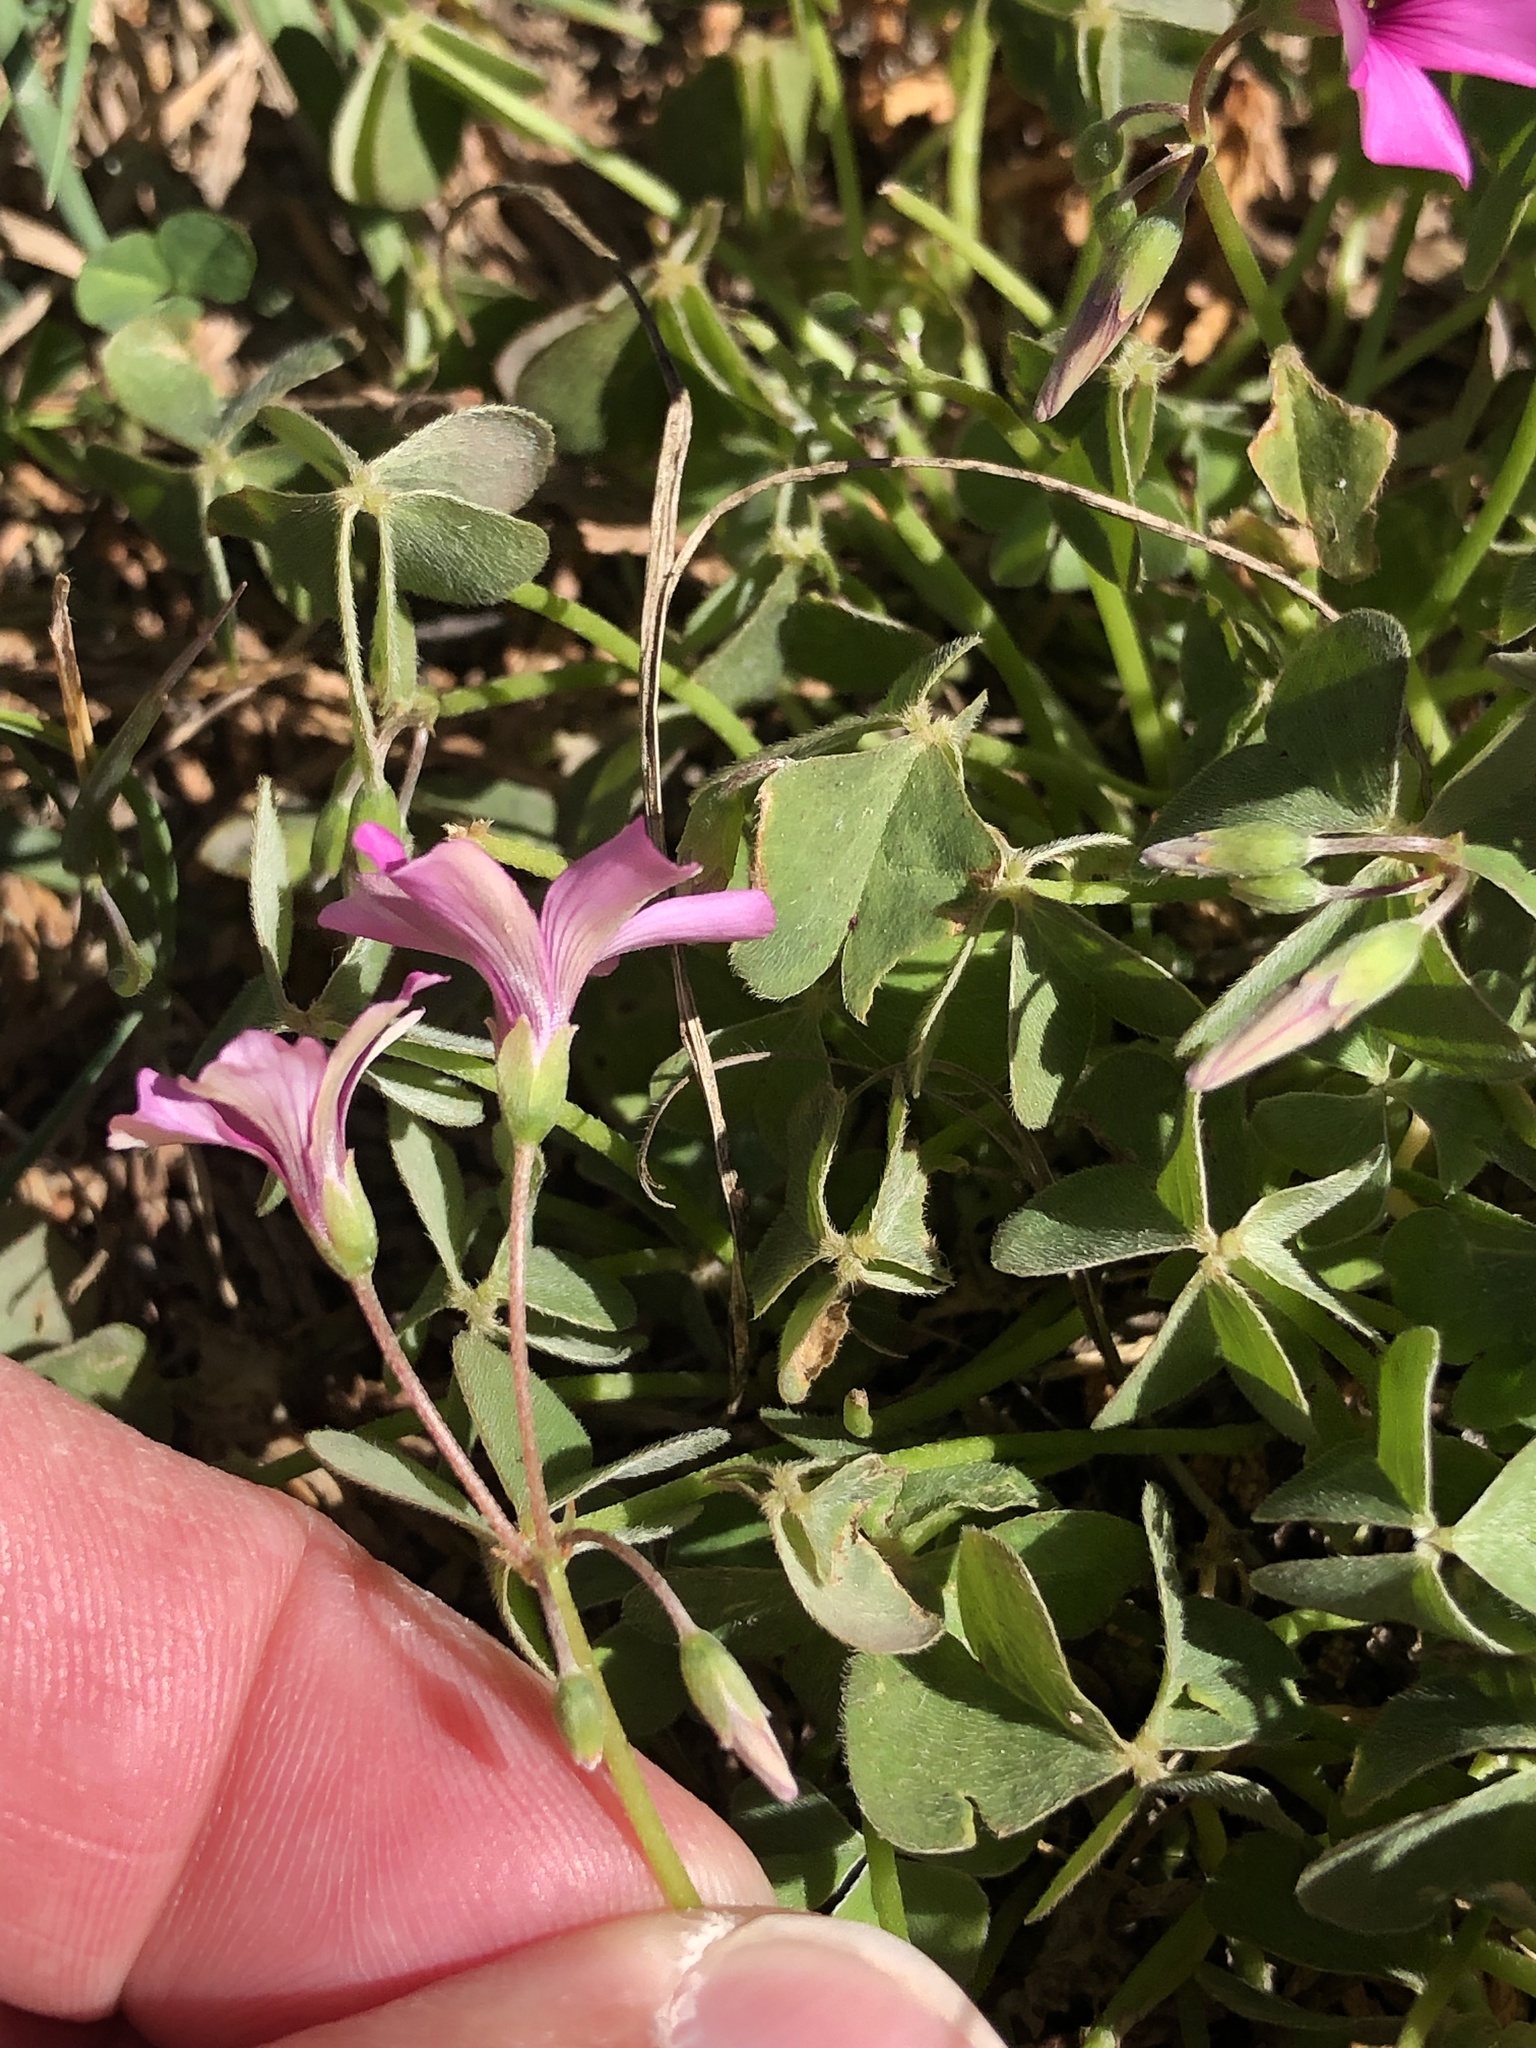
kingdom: Plantae
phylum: Tracheophyta
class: Magnoliopsida
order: Oxalidales
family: Oxalidaceae
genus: Oxalis
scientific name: Oxalis articulata
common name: Pink-sorrel
